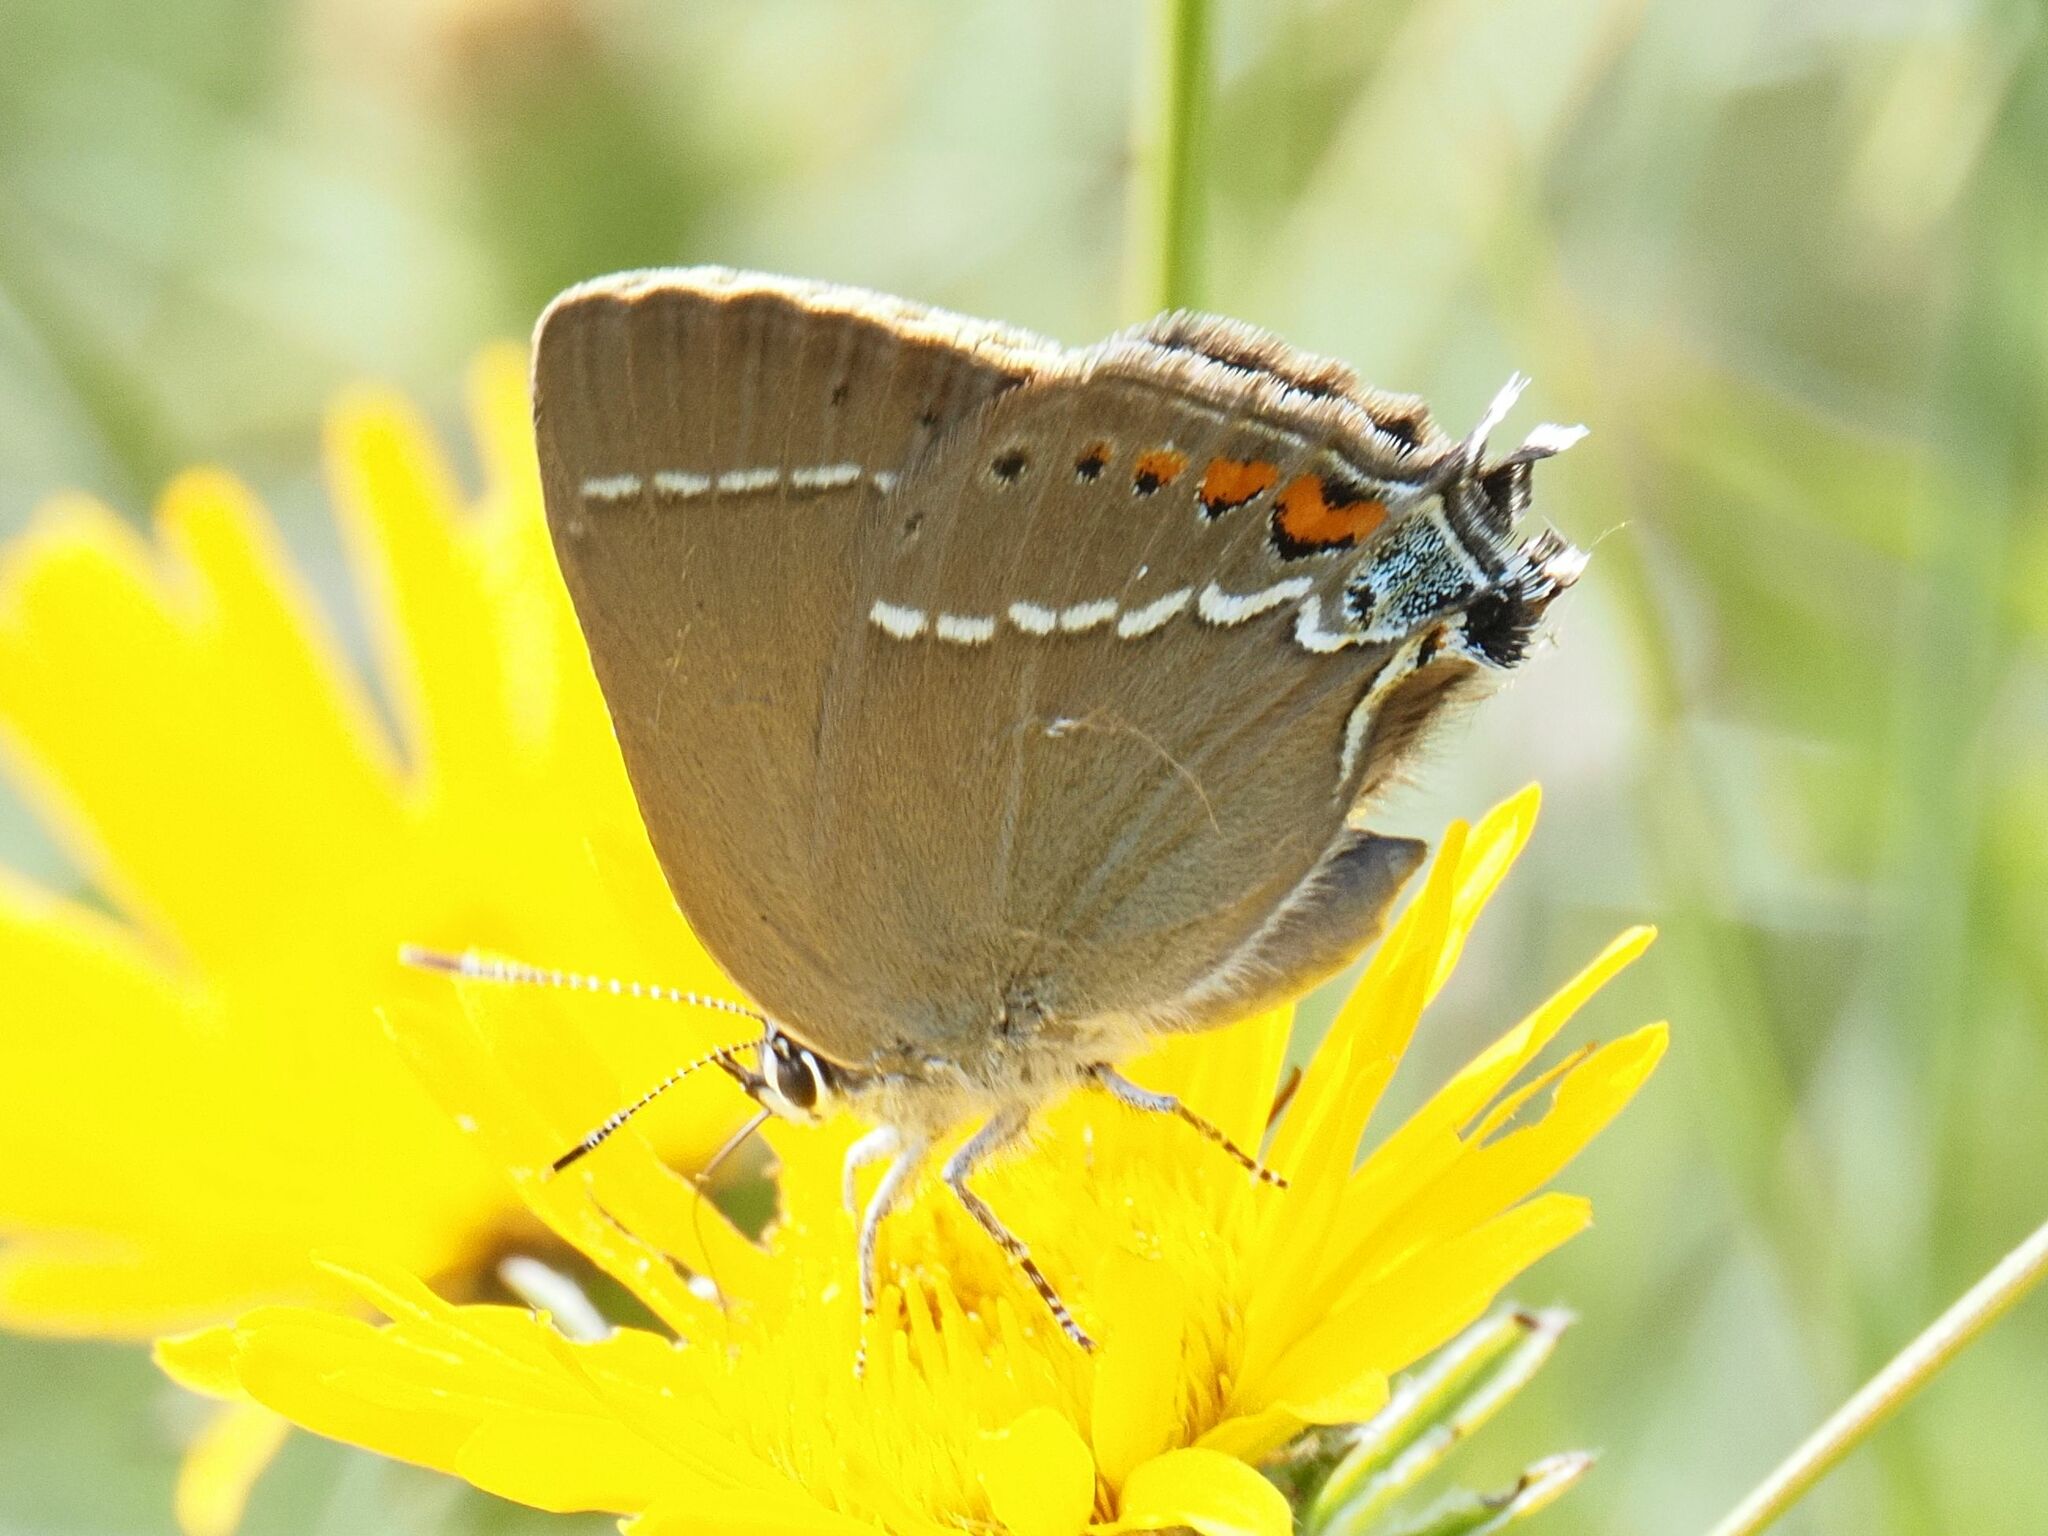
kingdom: Animalia
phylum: Arthropoda
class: Insecta
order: Lepidoptera
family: Lycaenidae
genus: Tuttiola
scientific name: Tuttiola spini
